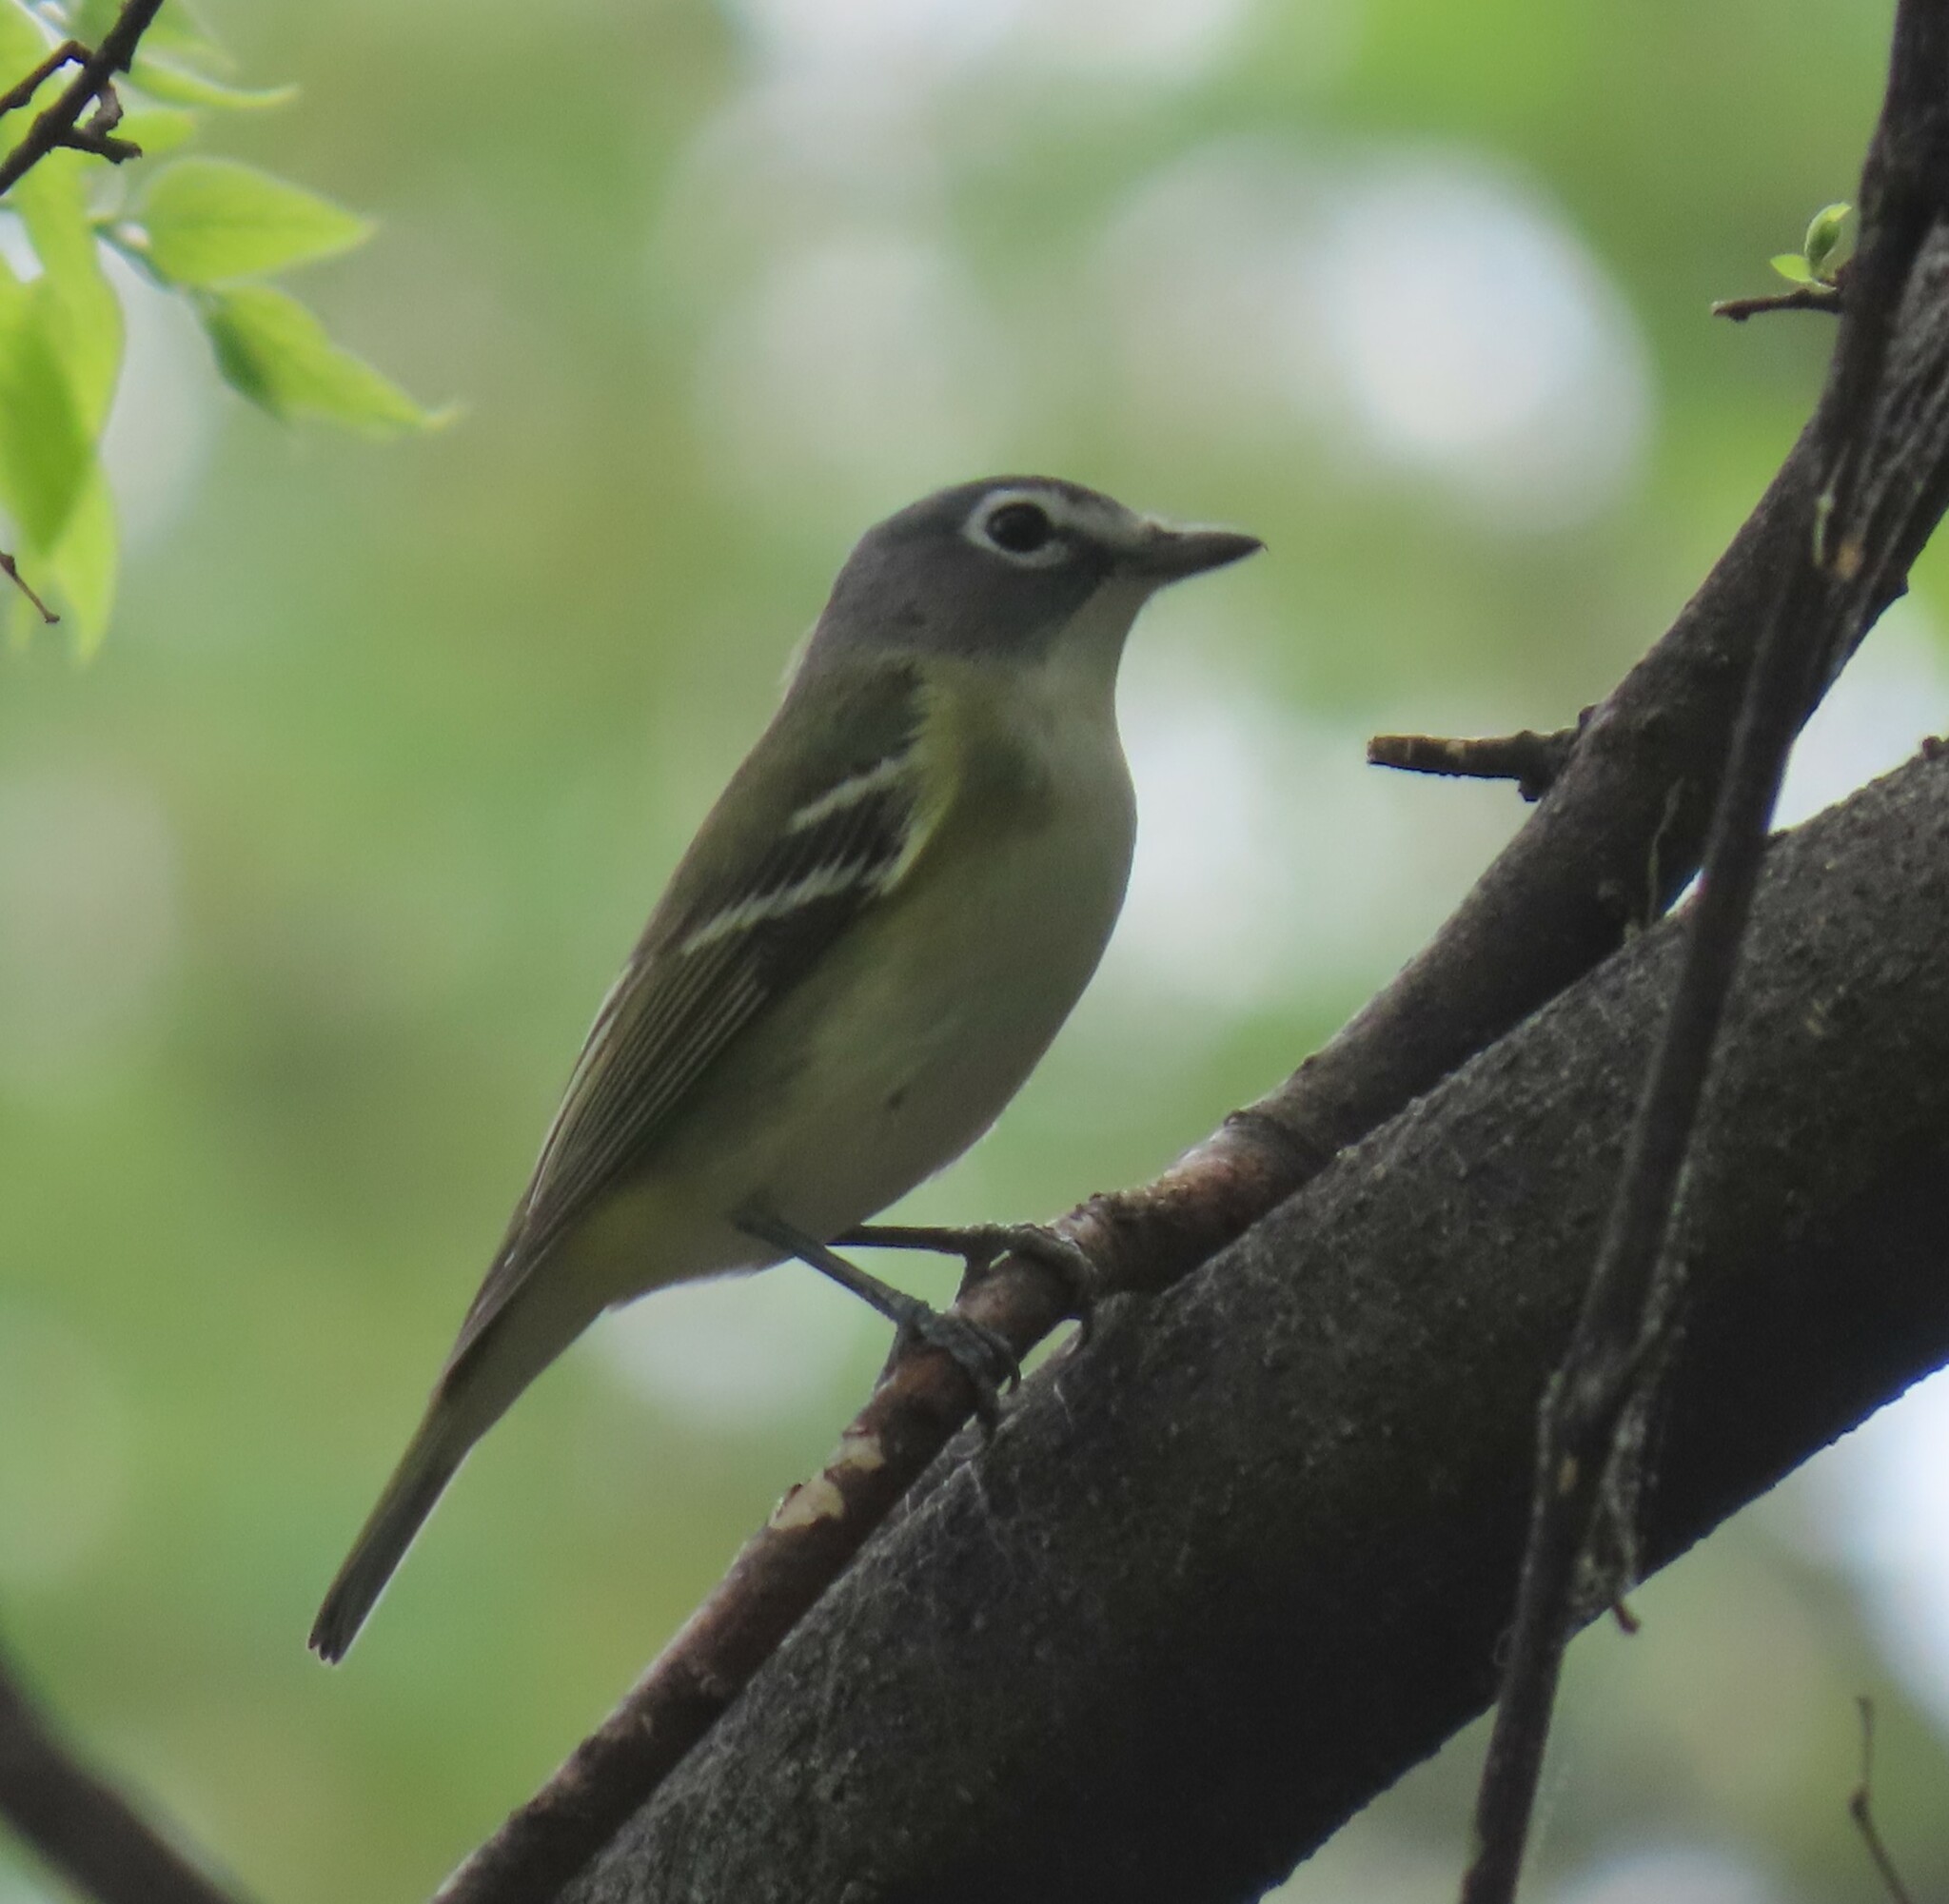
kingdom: Animalia
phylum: Chordata
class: Aves
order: Passeriformes
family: Vireonidae
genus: Vireo
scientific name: Vireo solitarius
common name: Blue-headed vireo
